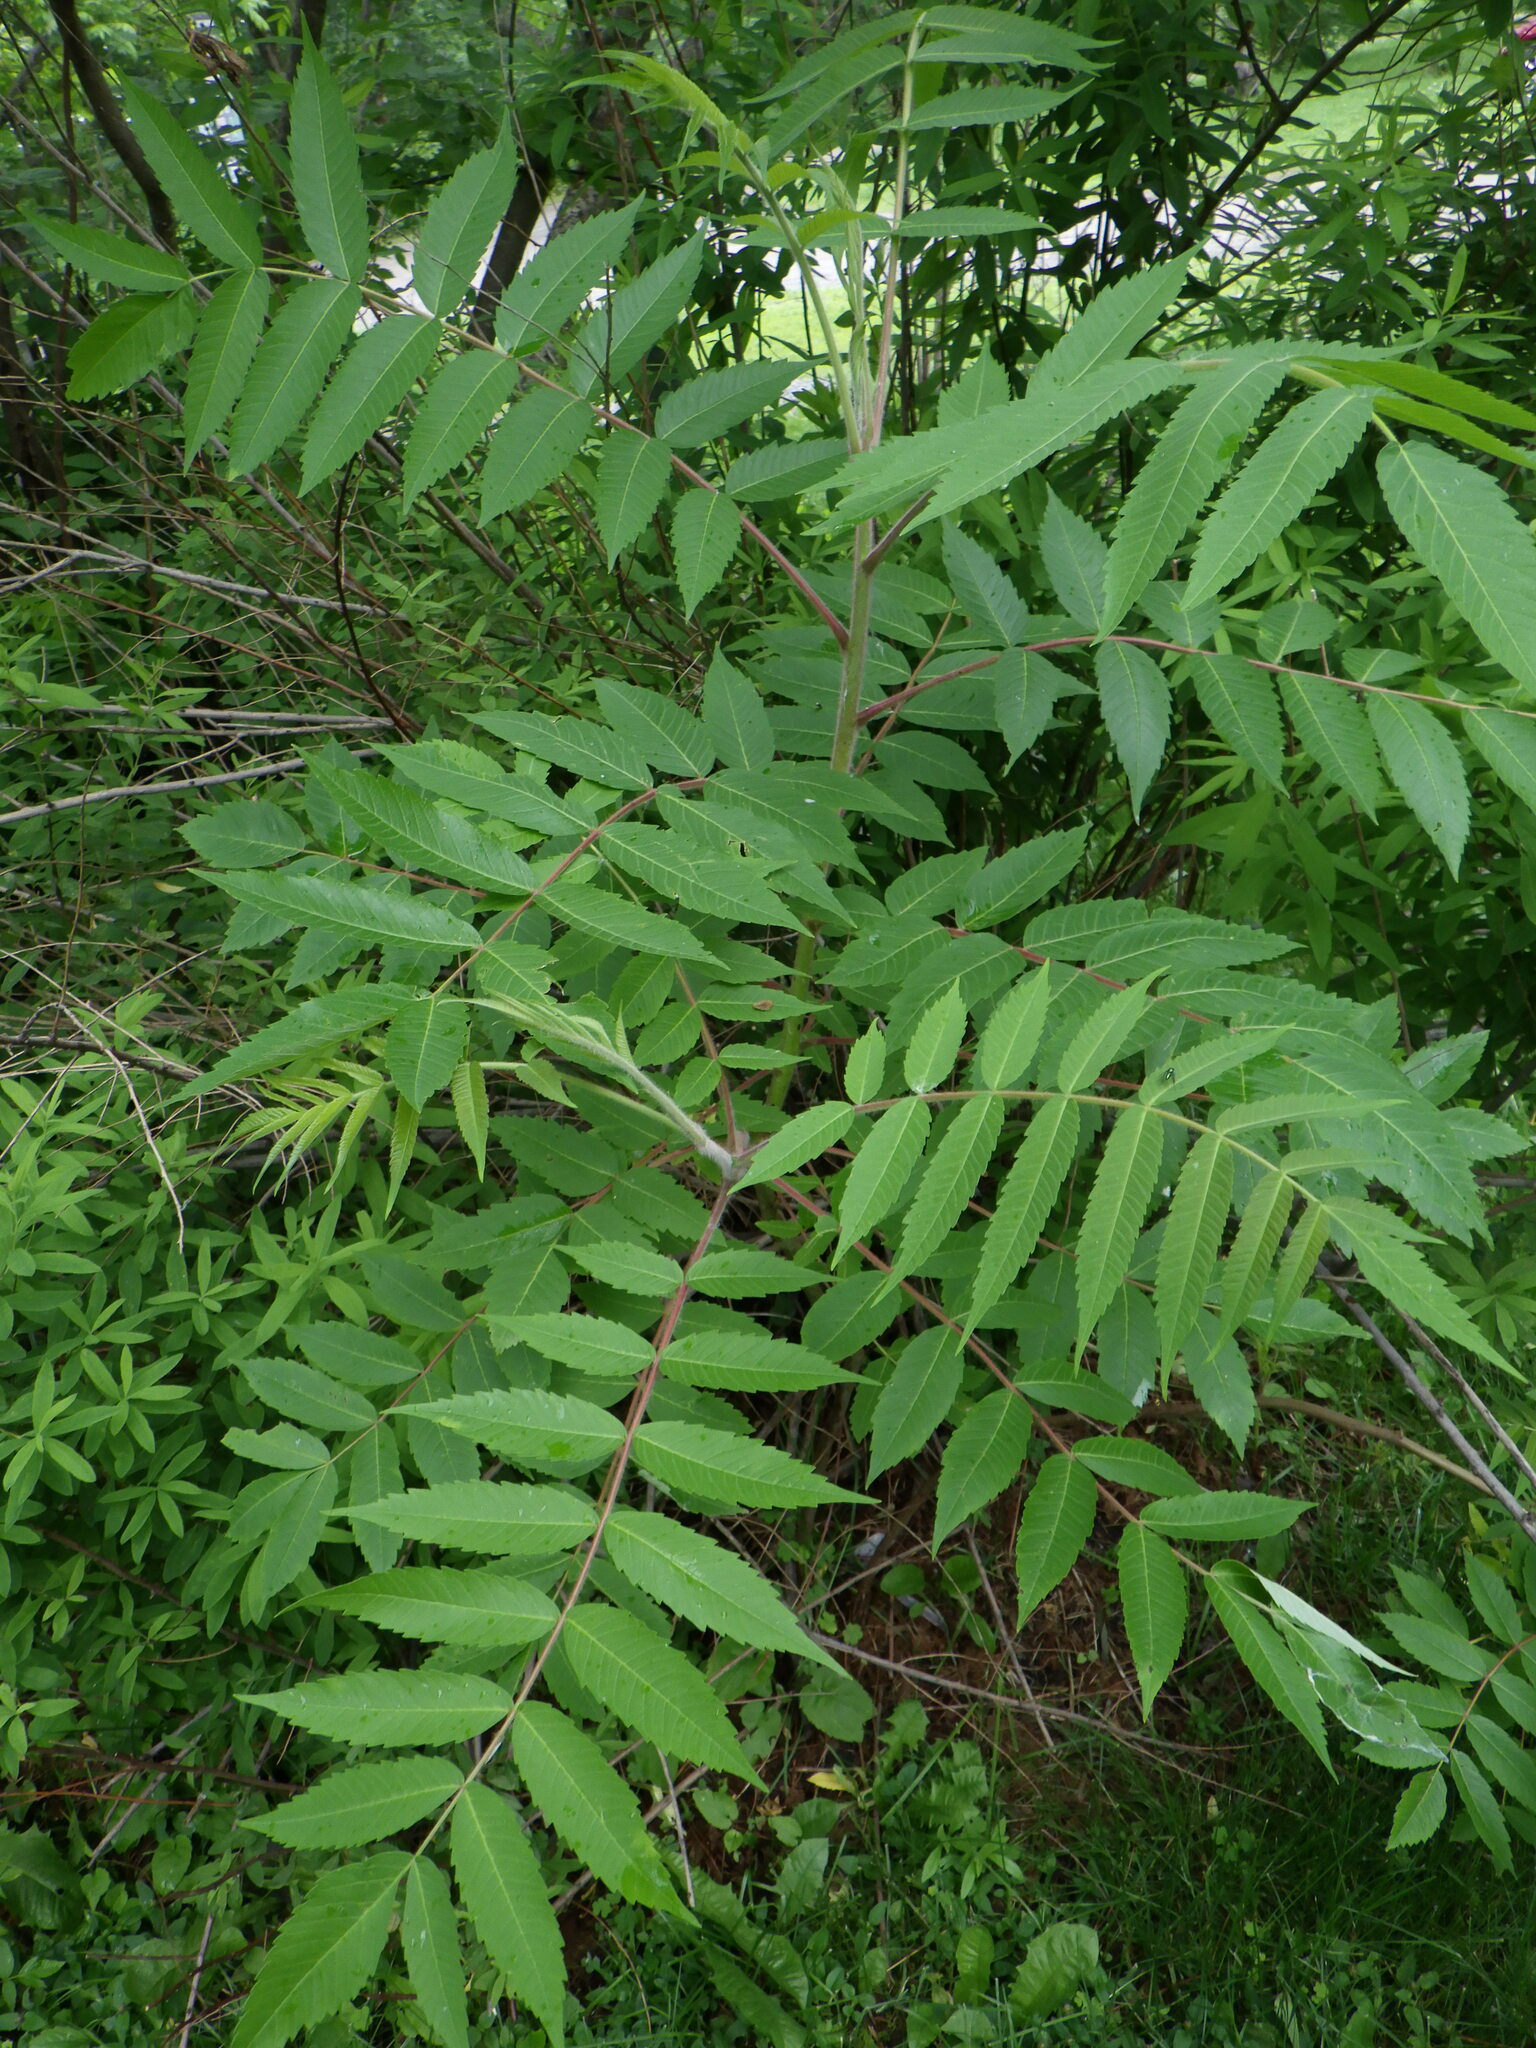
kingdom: Plantae
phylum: Tracheophyta
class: Magnoliopsida
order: Sapindales
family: Anacardiaceae
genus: Rhus
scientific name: Rhus typhina
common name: Staghorn sumac
